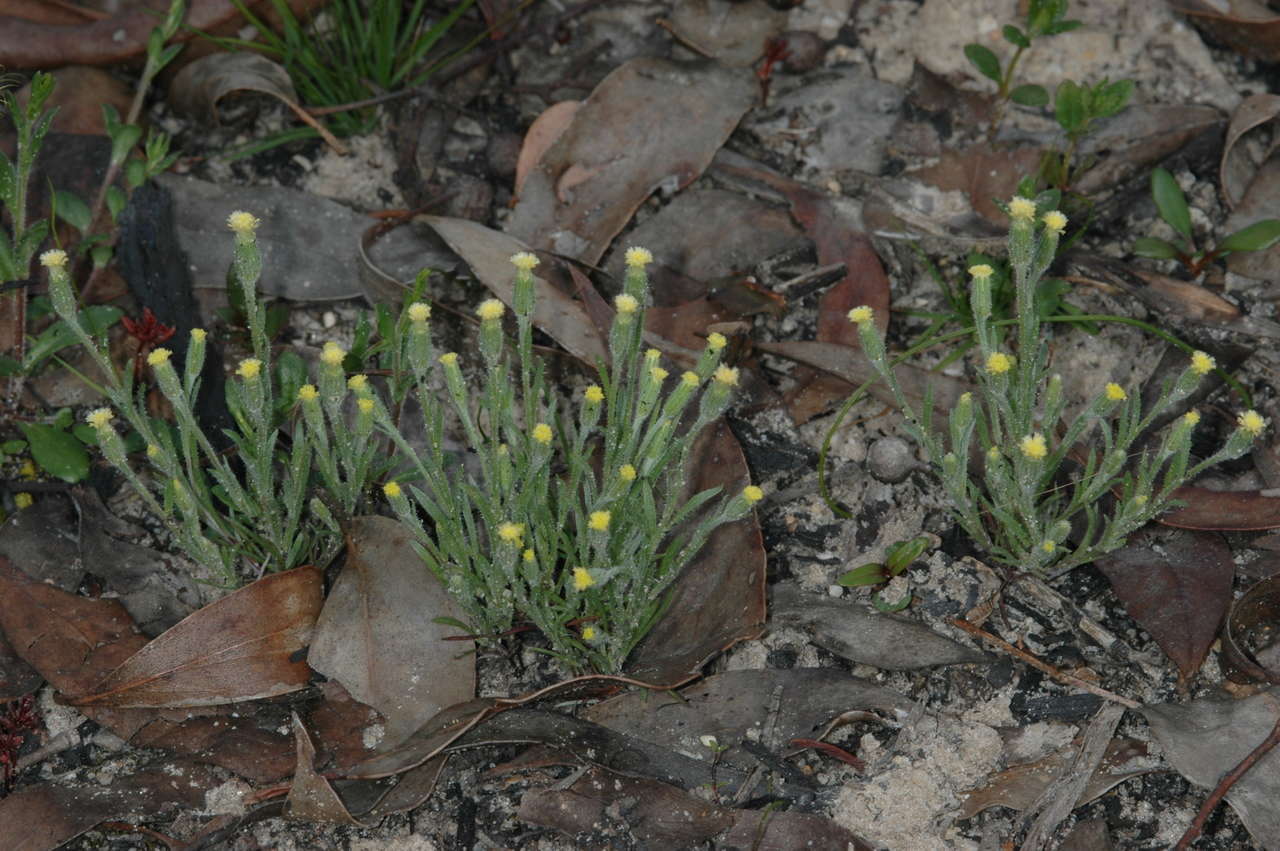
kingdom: Plantae
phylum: Tracheophyta
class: Magnoliopsida
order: Asterales
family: Asteraceae
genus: Millotia
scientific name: Millotia tenuifolia
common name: Soft millotia
